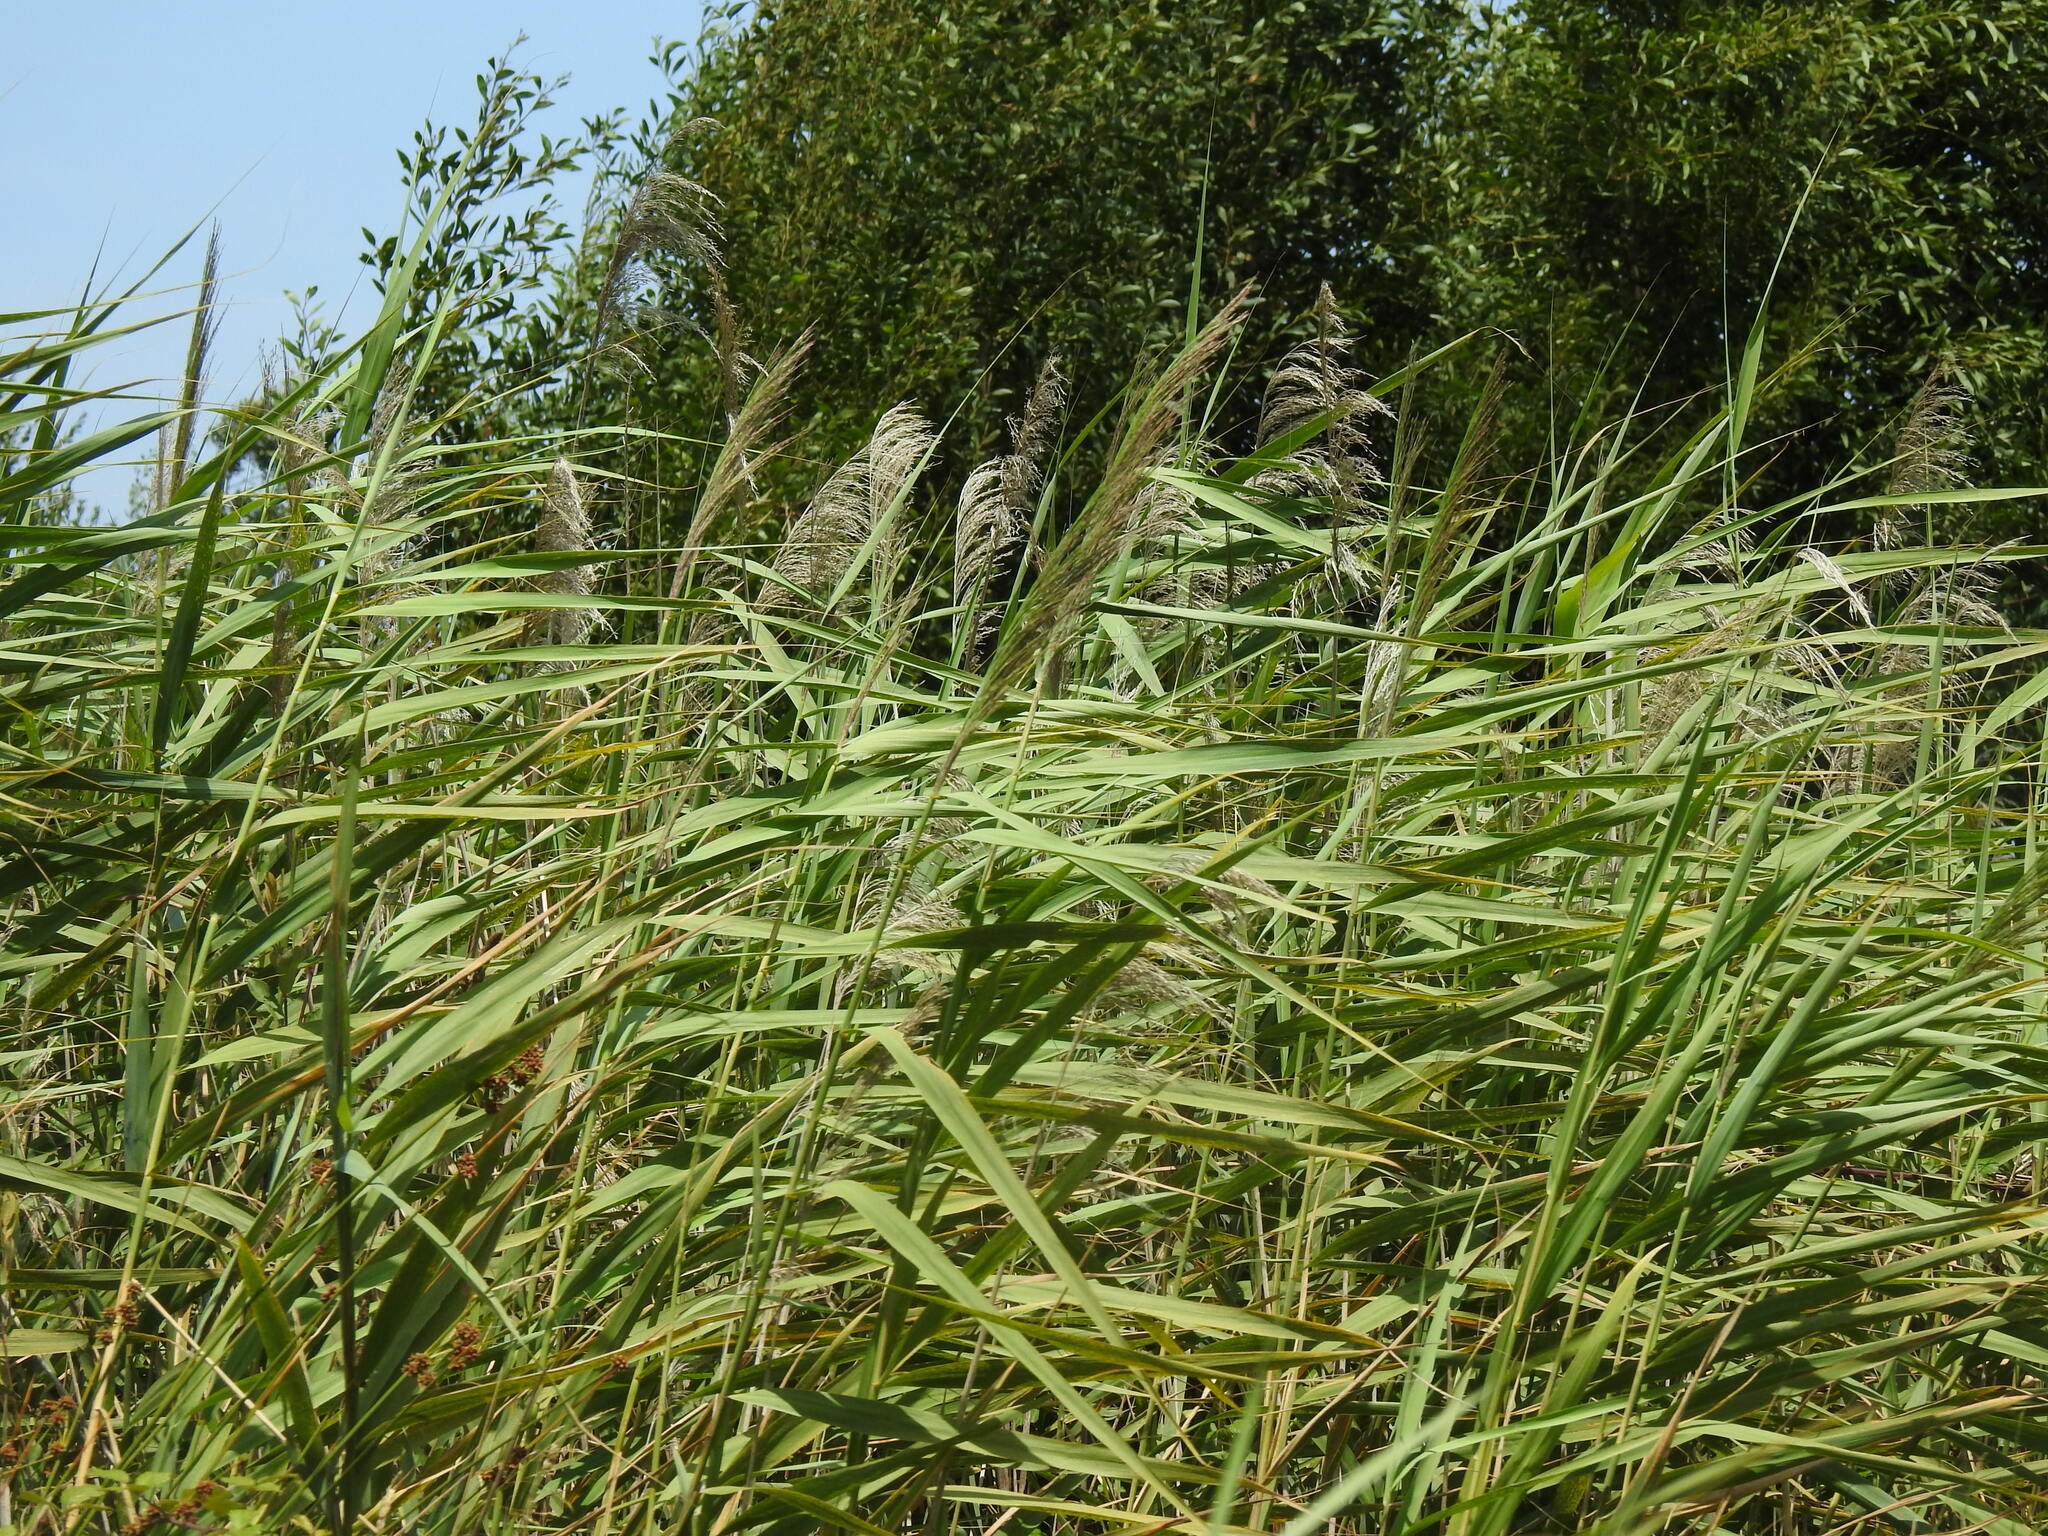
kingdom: Plantae
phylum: Tracheophyta
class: Liliopsida
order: Poales
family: Poaceae
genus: Phragmites
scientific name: Phragmites australis
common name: Common reed
